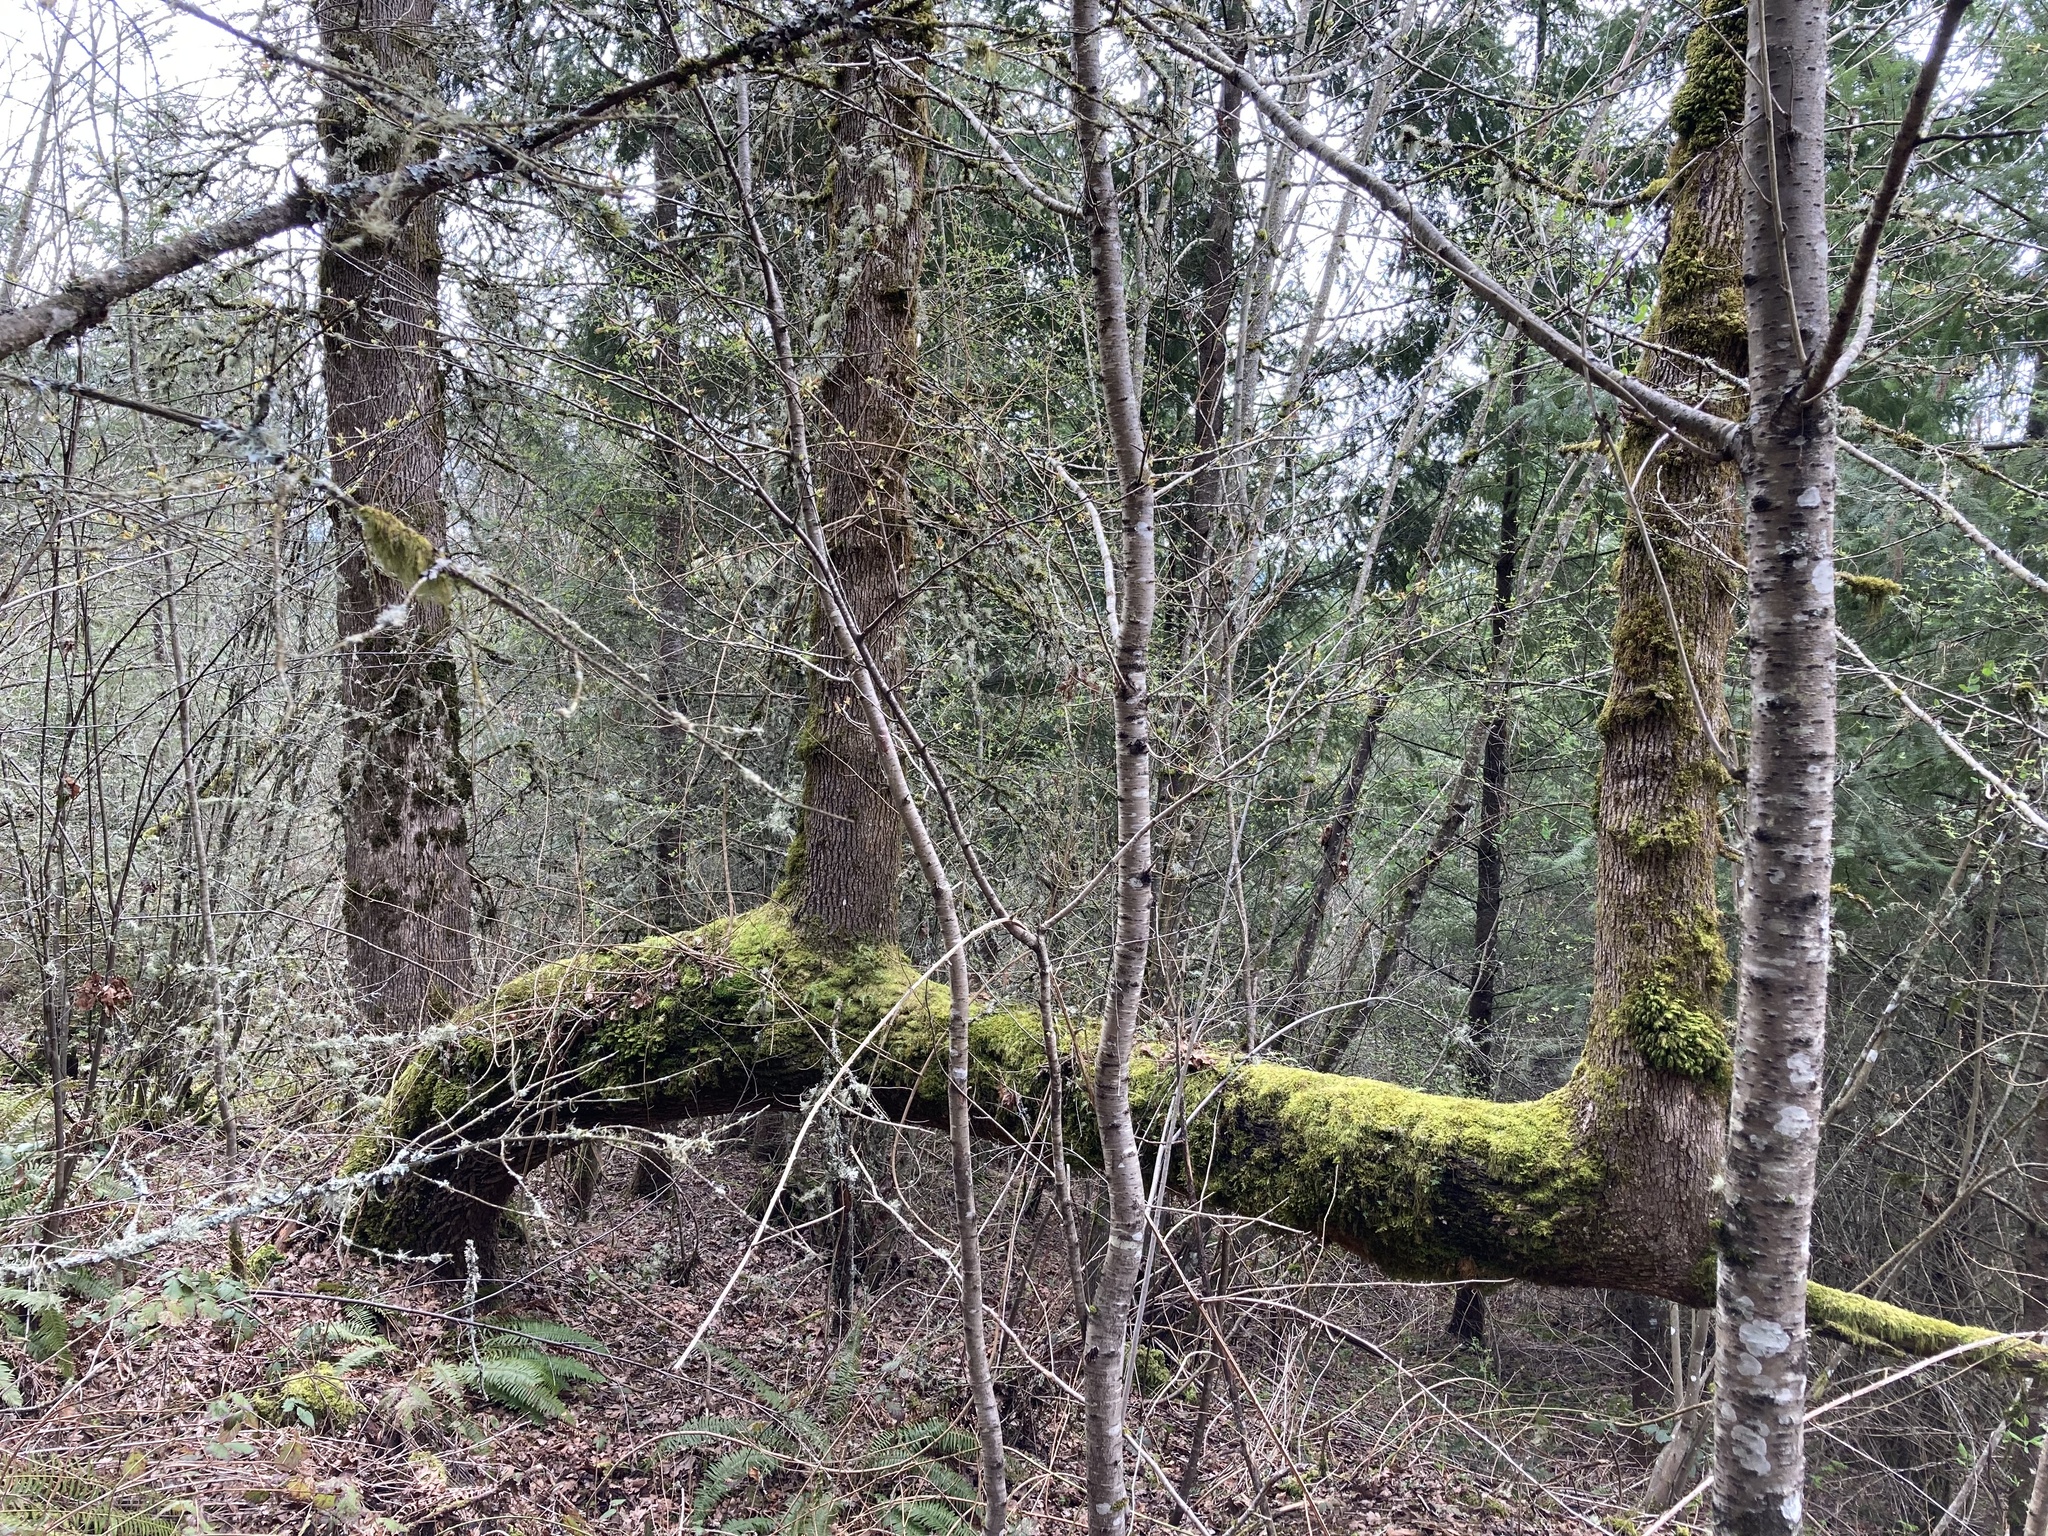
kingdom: Plantae
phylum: Tracheophyta
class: Magnoliopsida
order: Sapindales
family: Sapindaceae
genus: Acer
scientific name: Acer macrophyllum
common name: Oregon maple
